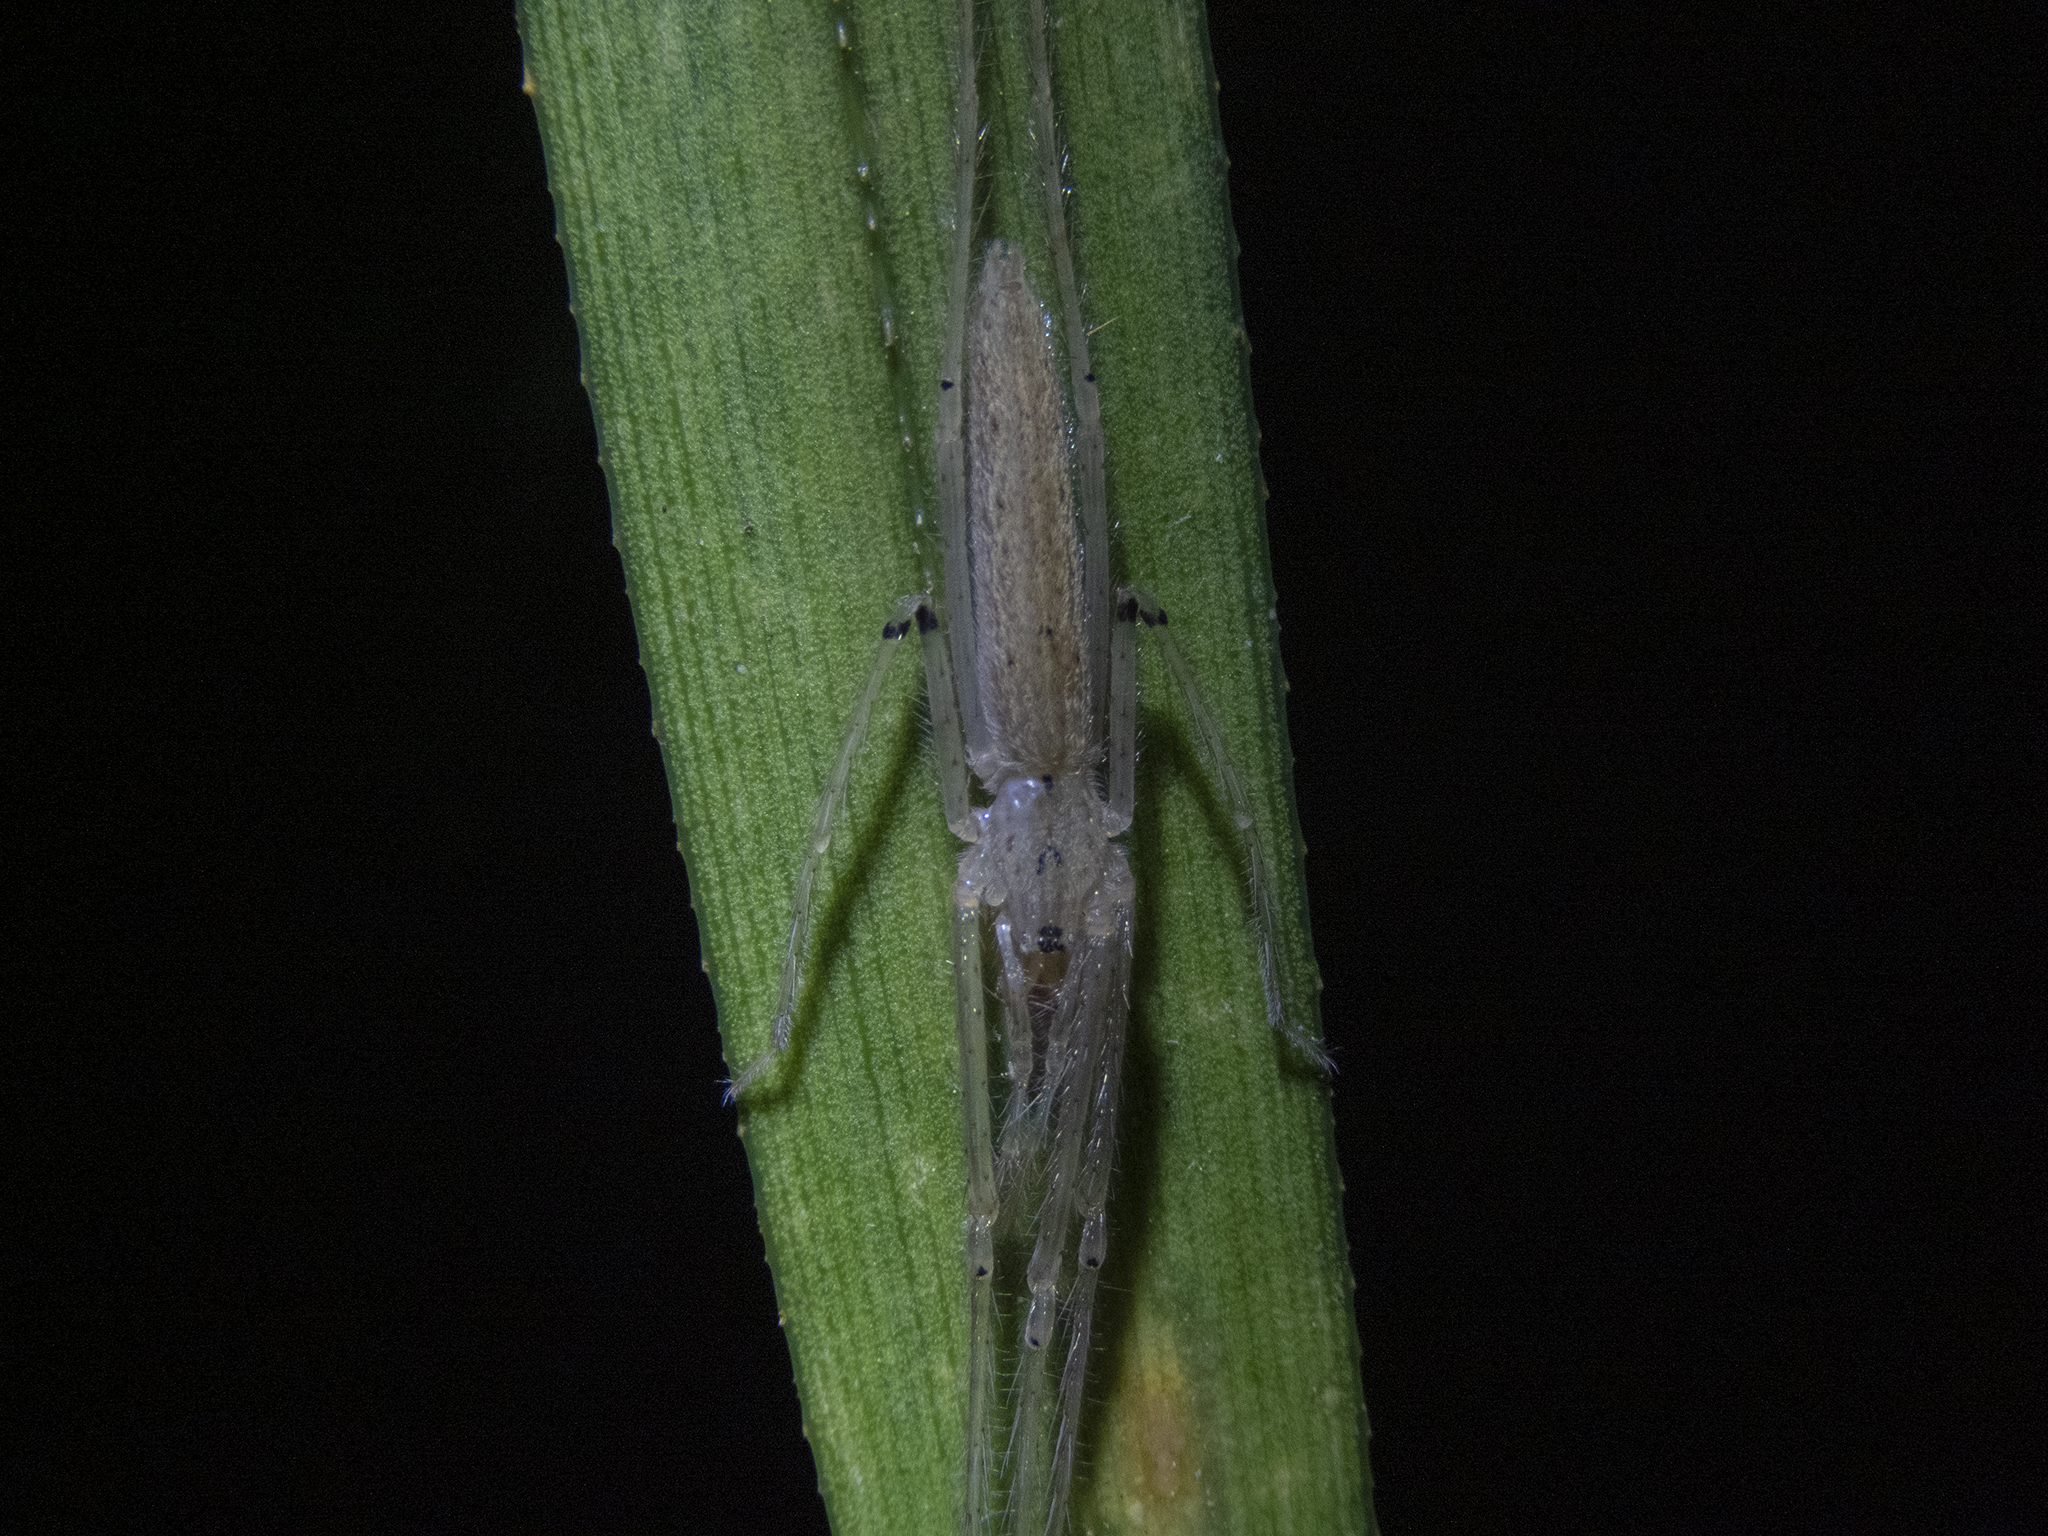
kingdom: Animalia
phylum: Arthropoda
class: Arachnida
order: Araneae
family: Desidae
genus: Ischalea
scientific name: Ischalea spinipes
